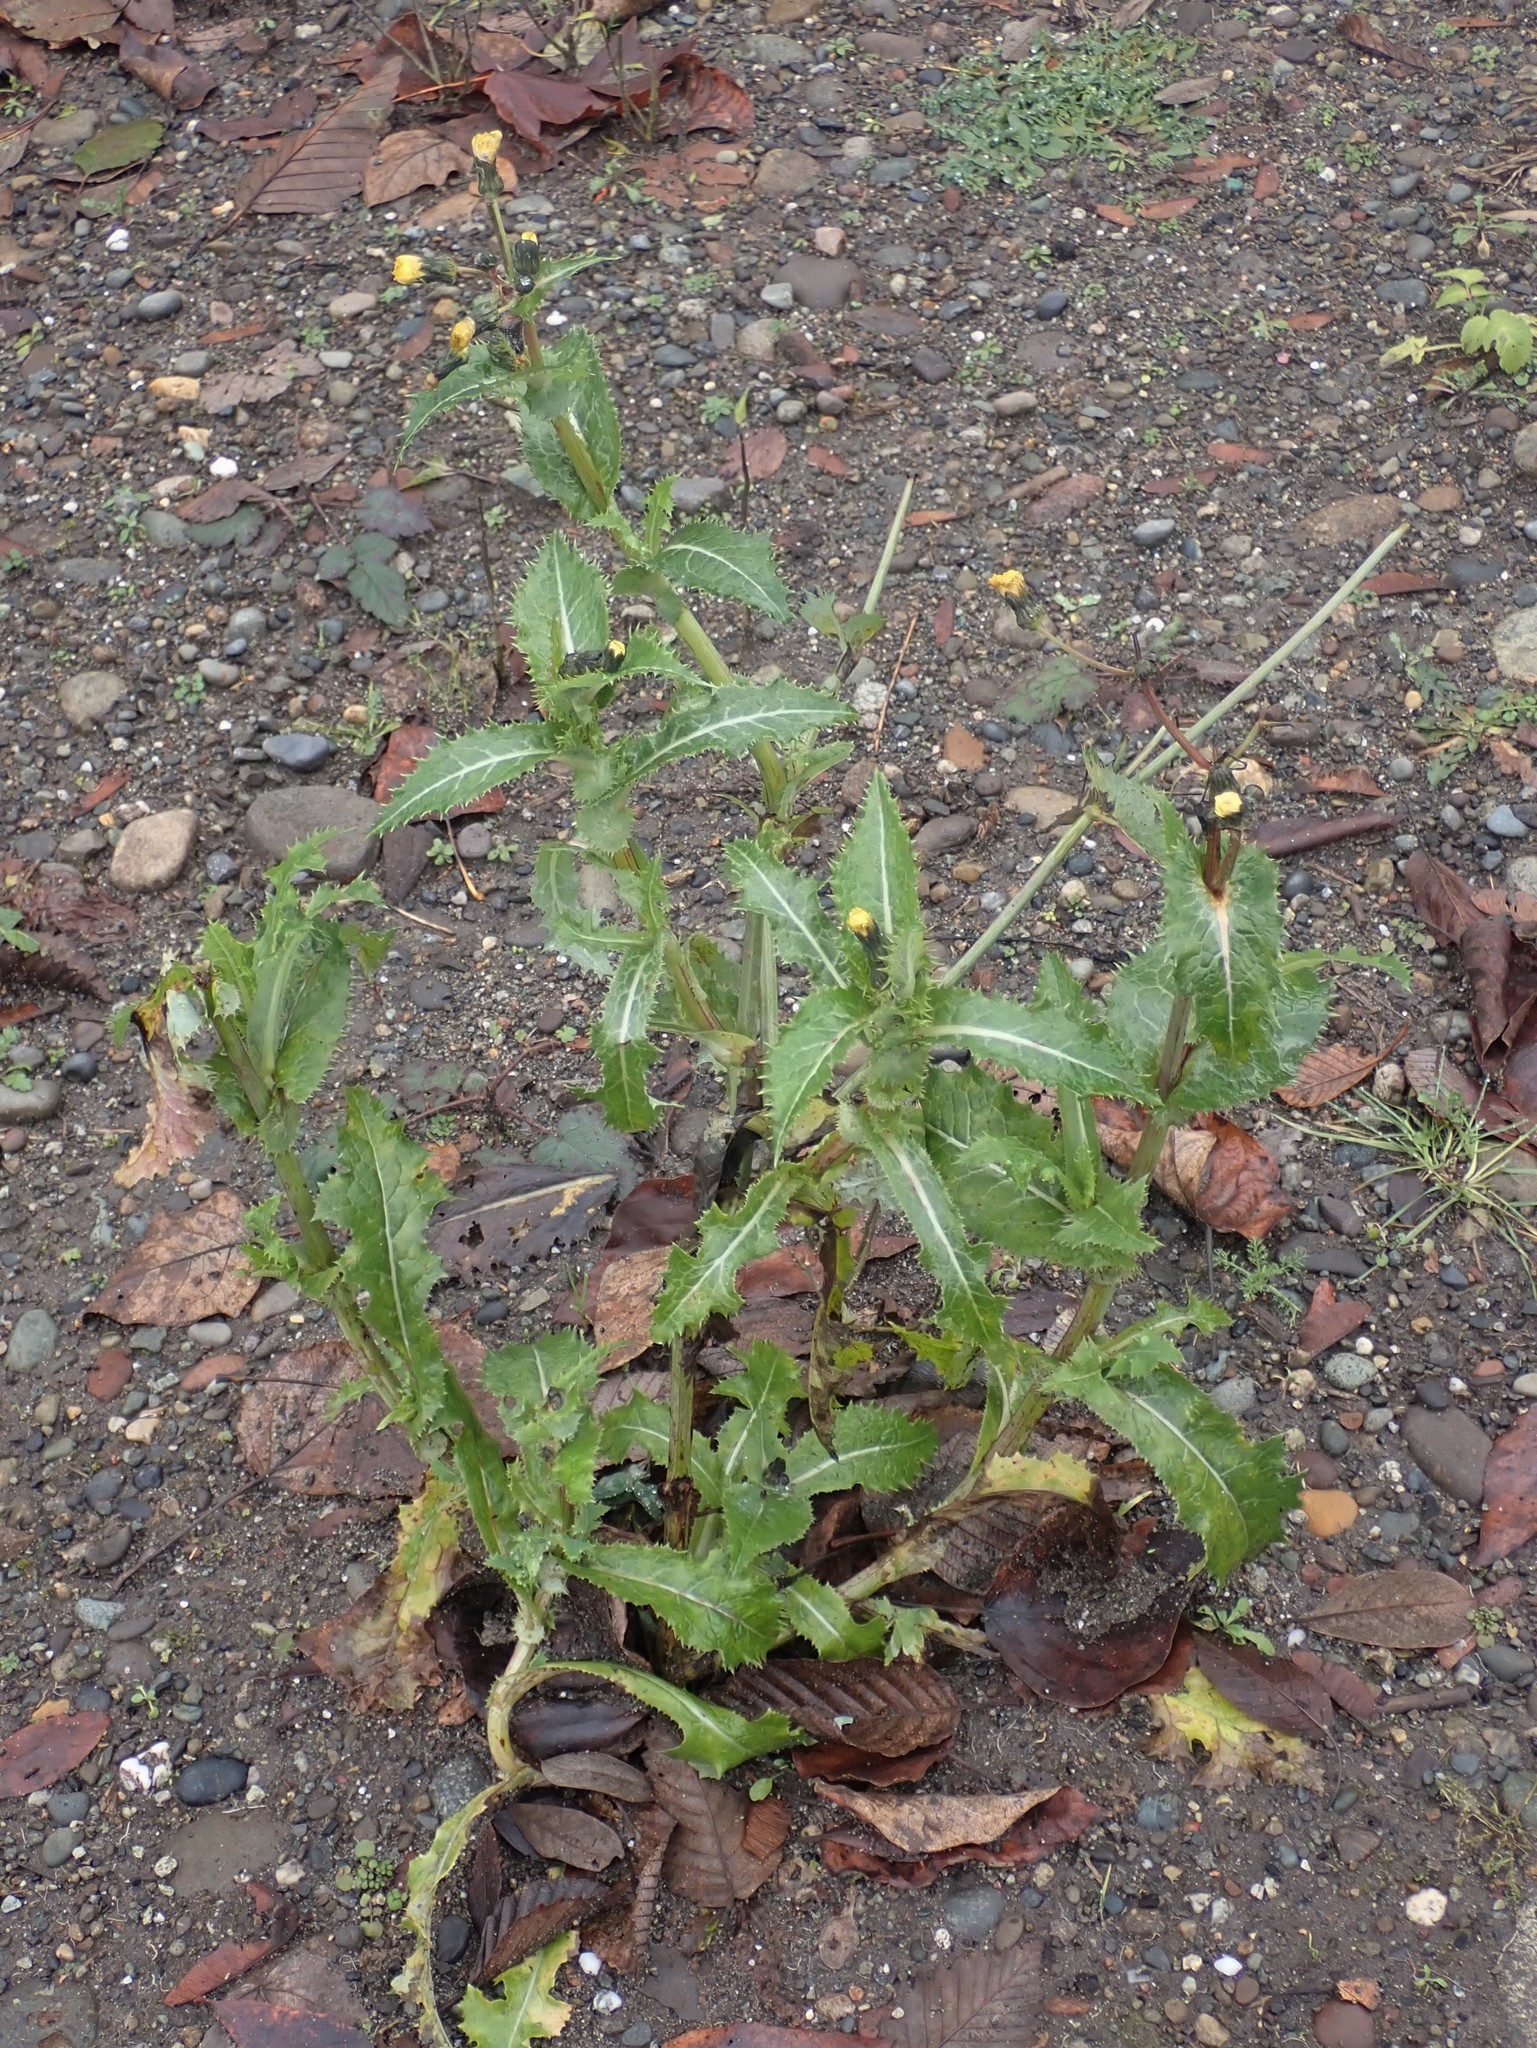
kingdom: Plantae
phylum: Tracheophyta
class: Magnoliopsida
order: Asterales
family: Asteraceae
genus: Sonchus
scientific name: Sonchus asper
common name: Prickly sow-thistle
